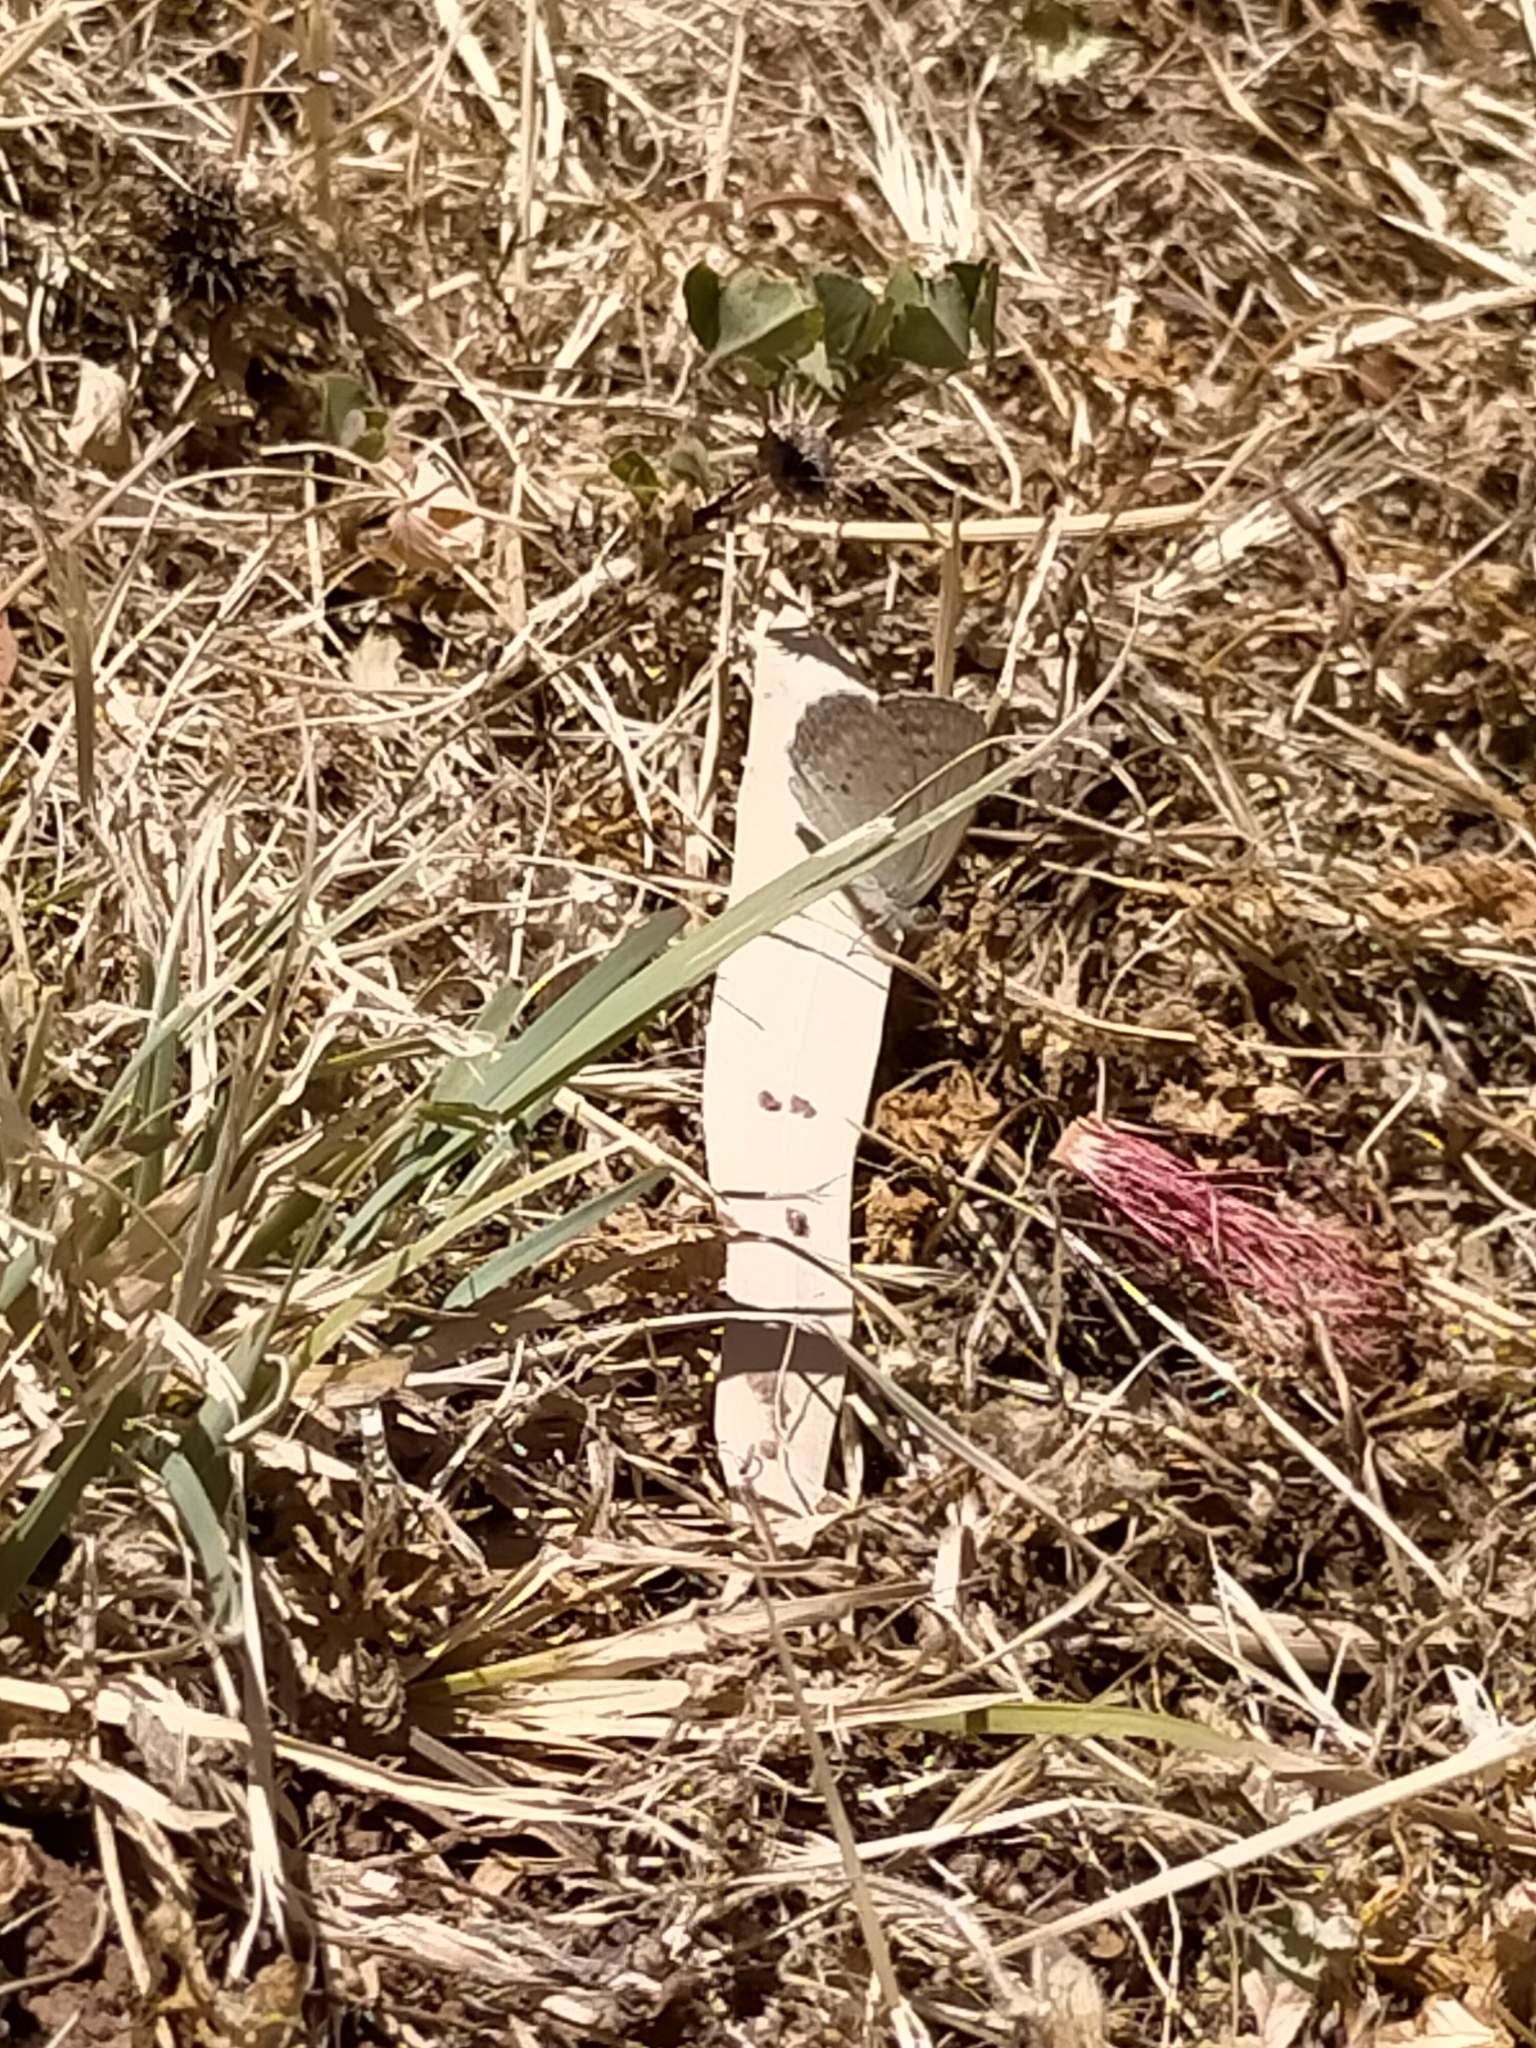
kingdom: Animalia
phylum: Arthropoda
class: Insecta
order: Lepidoptera
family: Lycaenidae
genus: Zizina
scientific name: Zizina labradus
